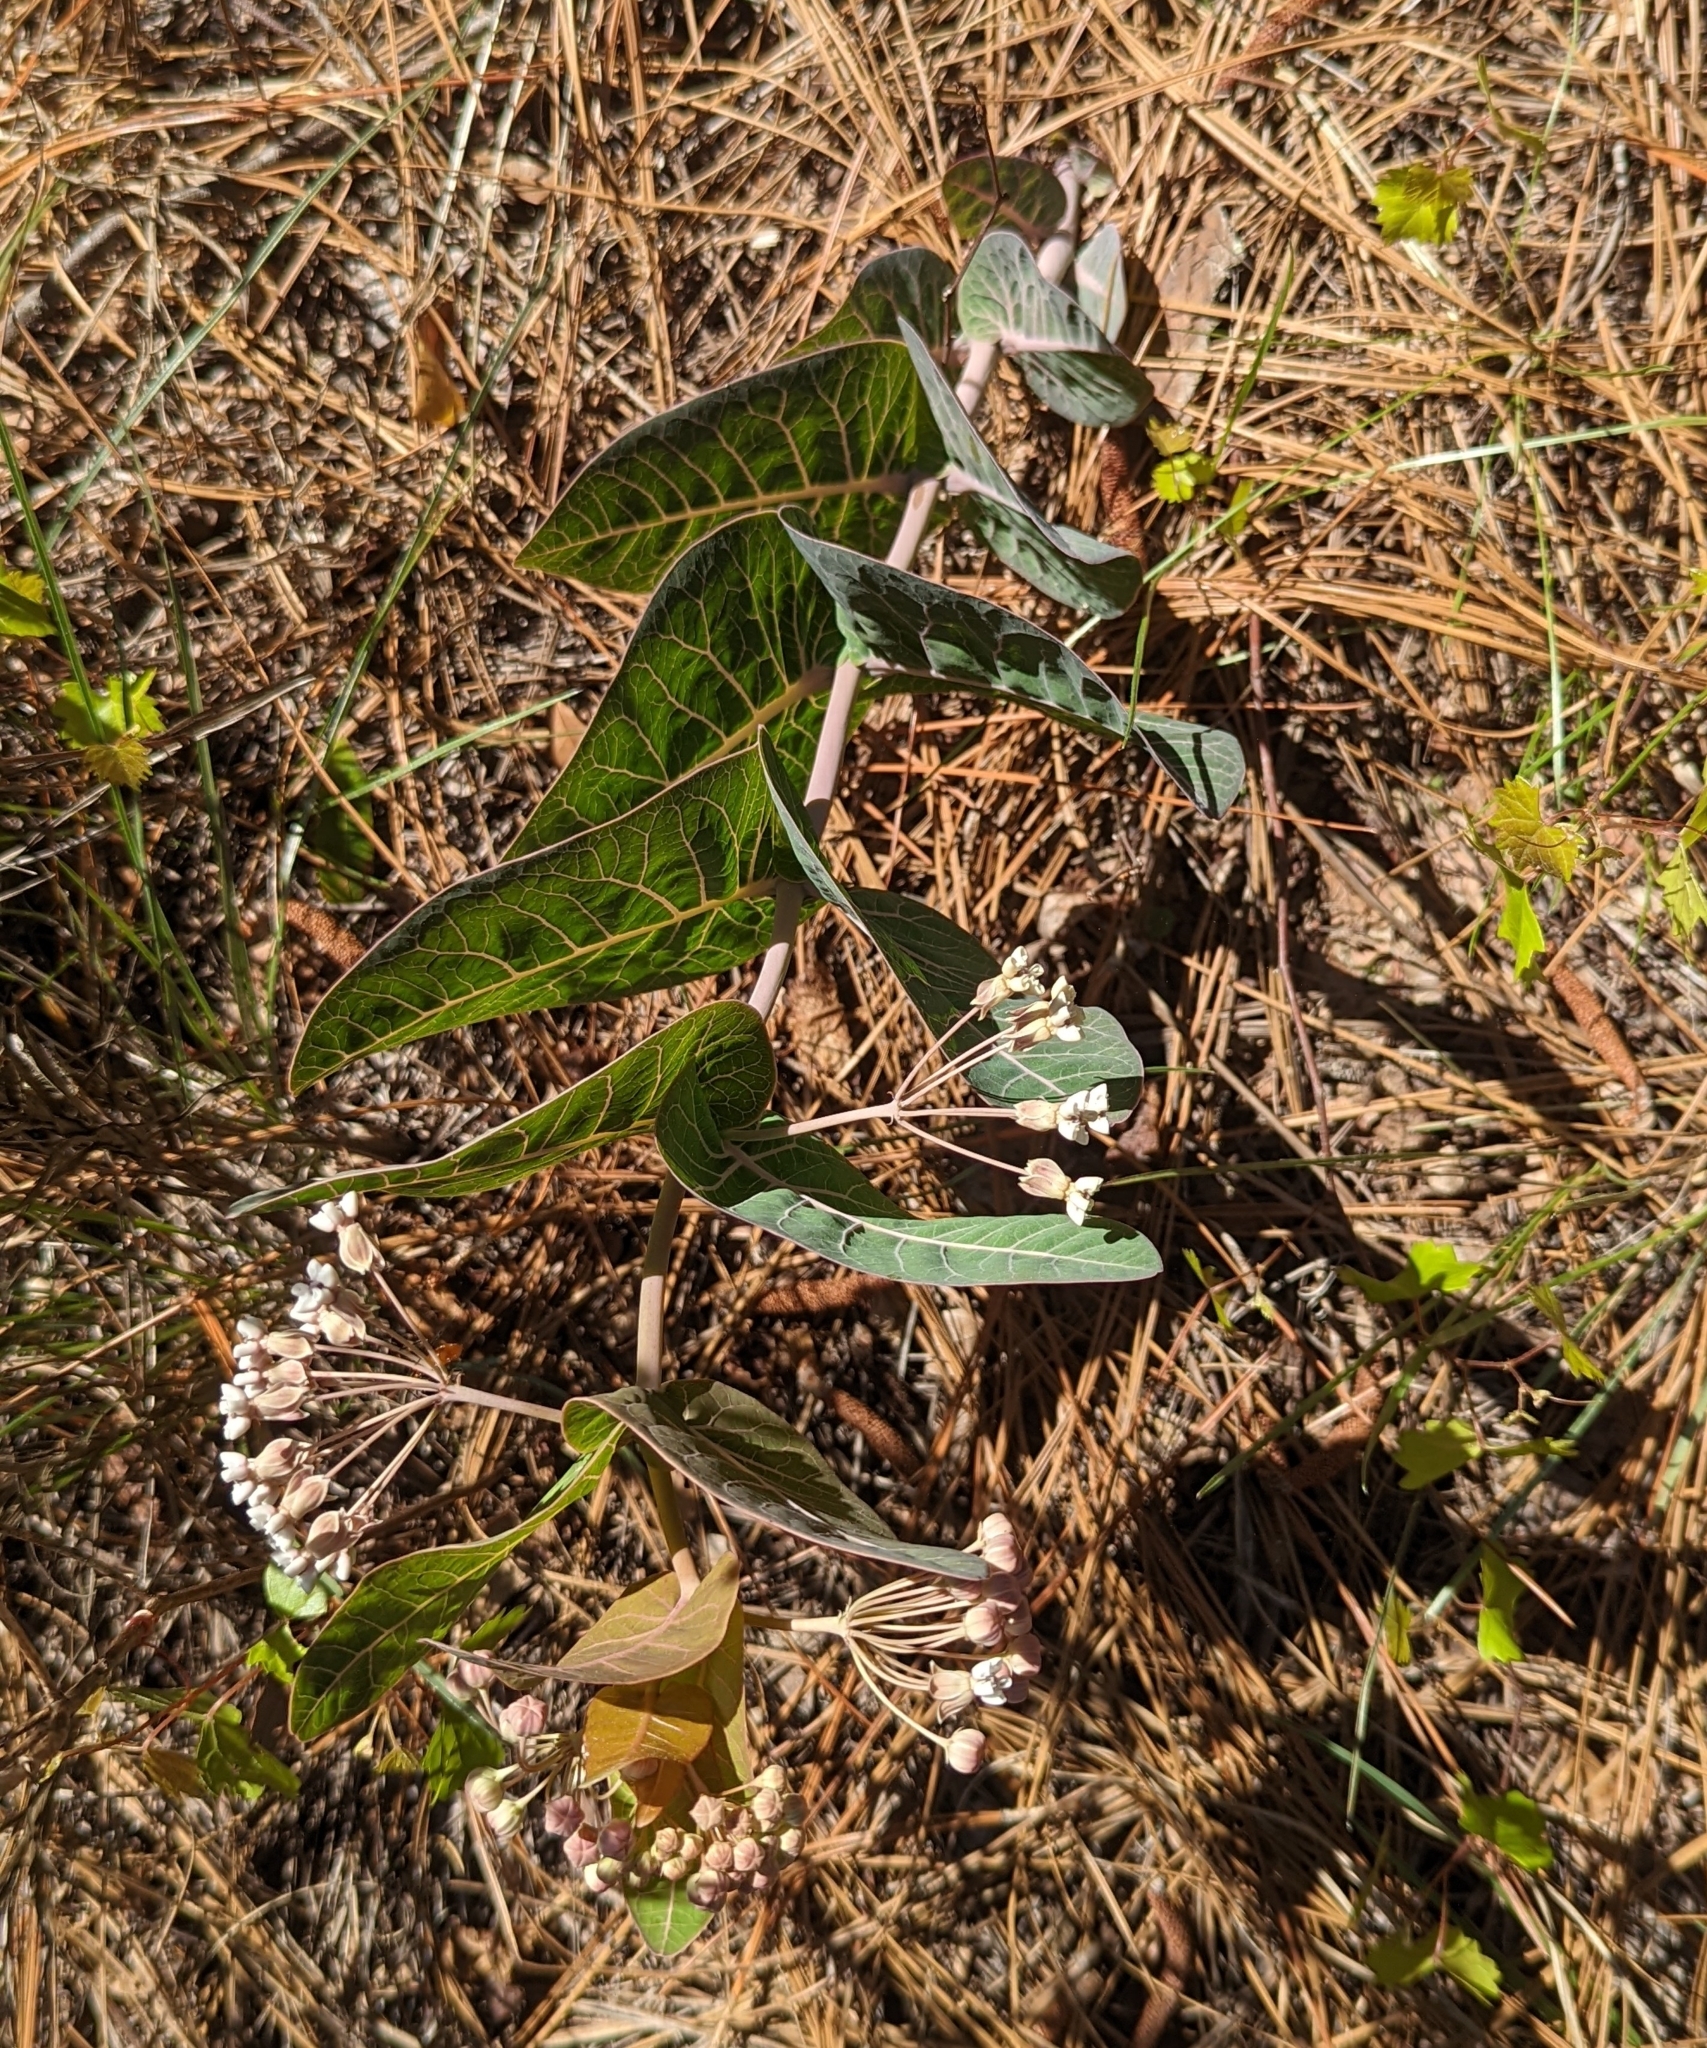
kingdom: Plantae
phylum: Tracheophyta
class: Magnoliopsida
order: Gentianales
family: Apocynaceae
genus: Asclepias
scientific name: Asclepias humistrata
